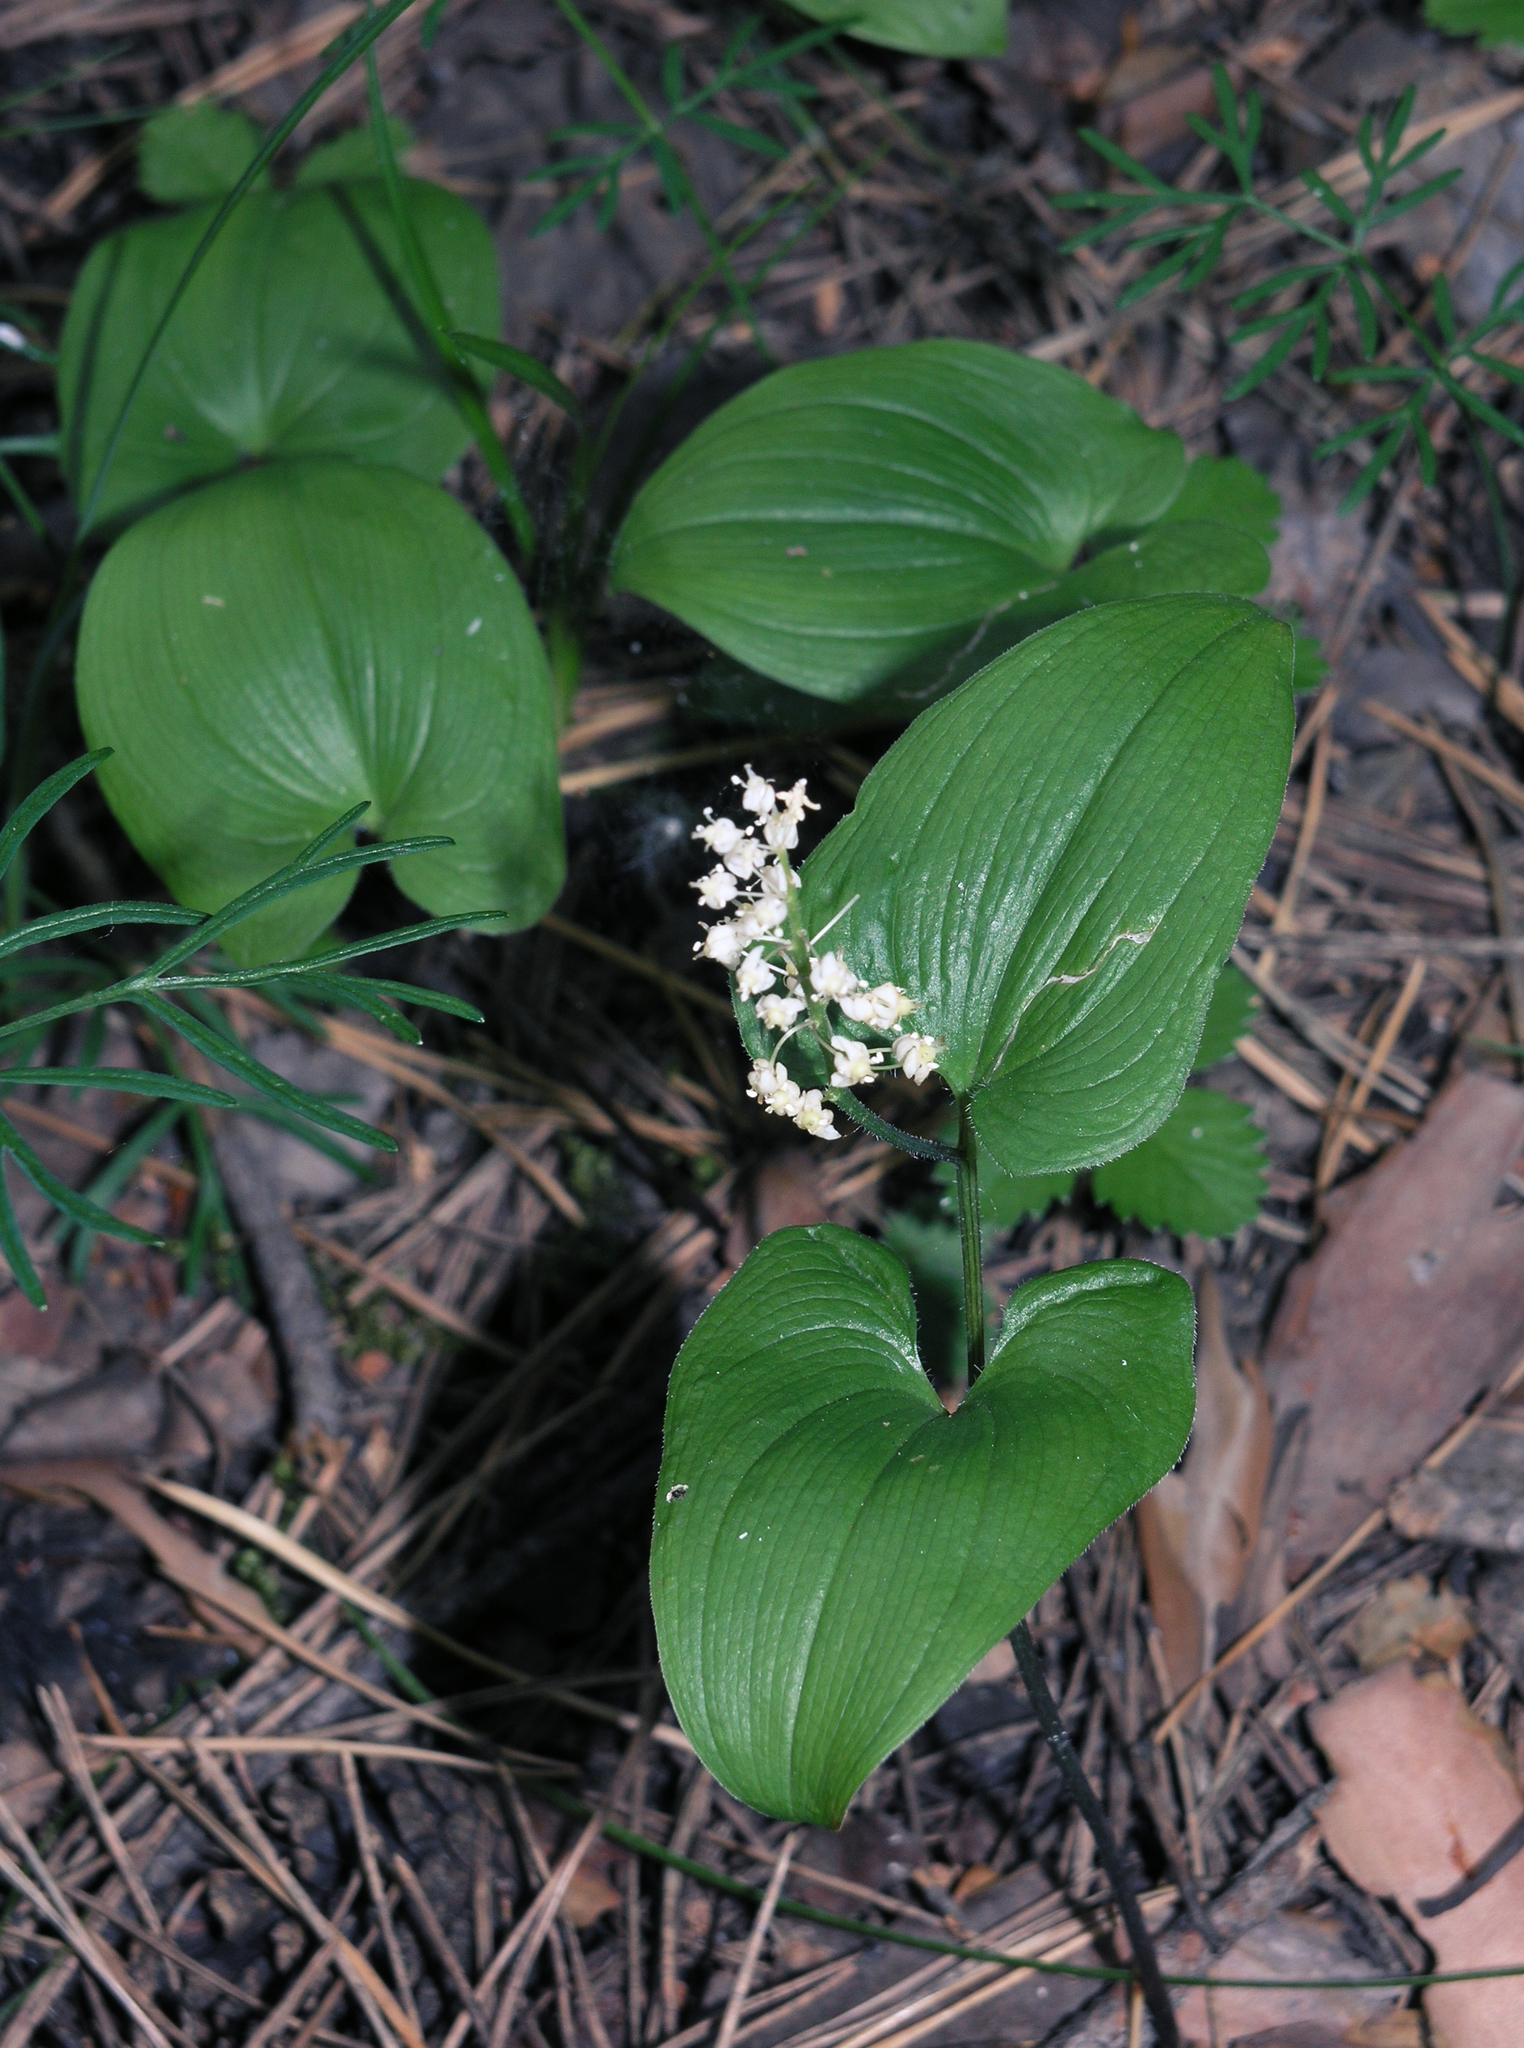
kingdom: Plantae
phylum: Tracheophyta
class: Liliopsida
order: Asparagales
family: Asparagaceae
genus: Maianthemum
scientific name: Maianthemum bifolium
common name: May lily
